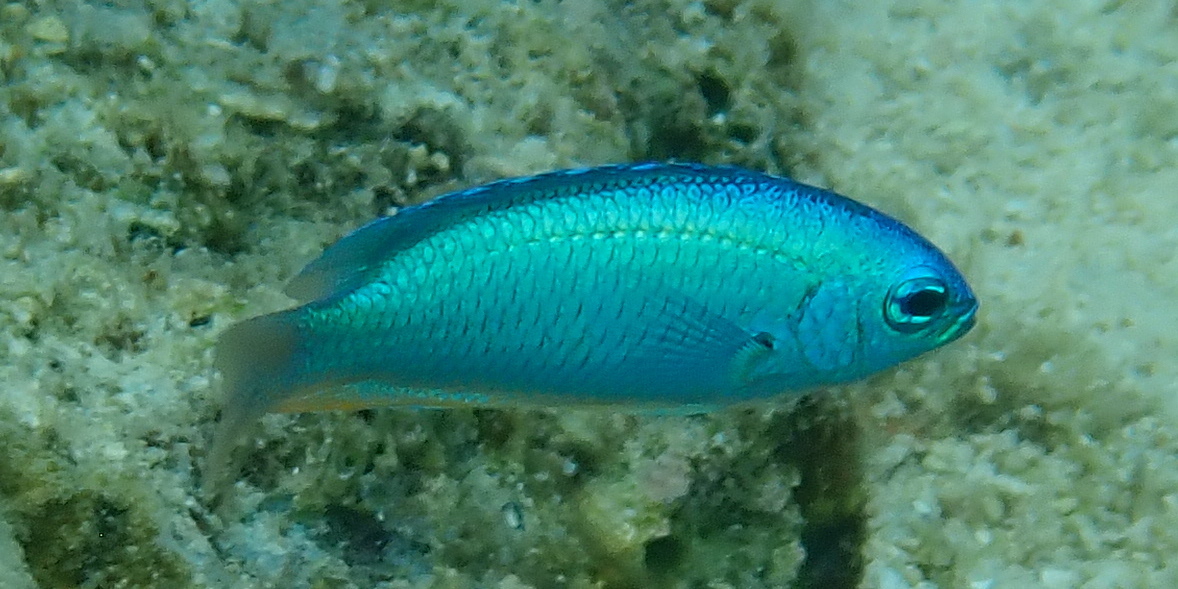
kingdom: Animalia
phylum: Chordata
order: Perciformes
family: Pomacentridae
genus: Pomacentrus
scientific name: Pomacentrus coelestis
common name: Neon damsel
